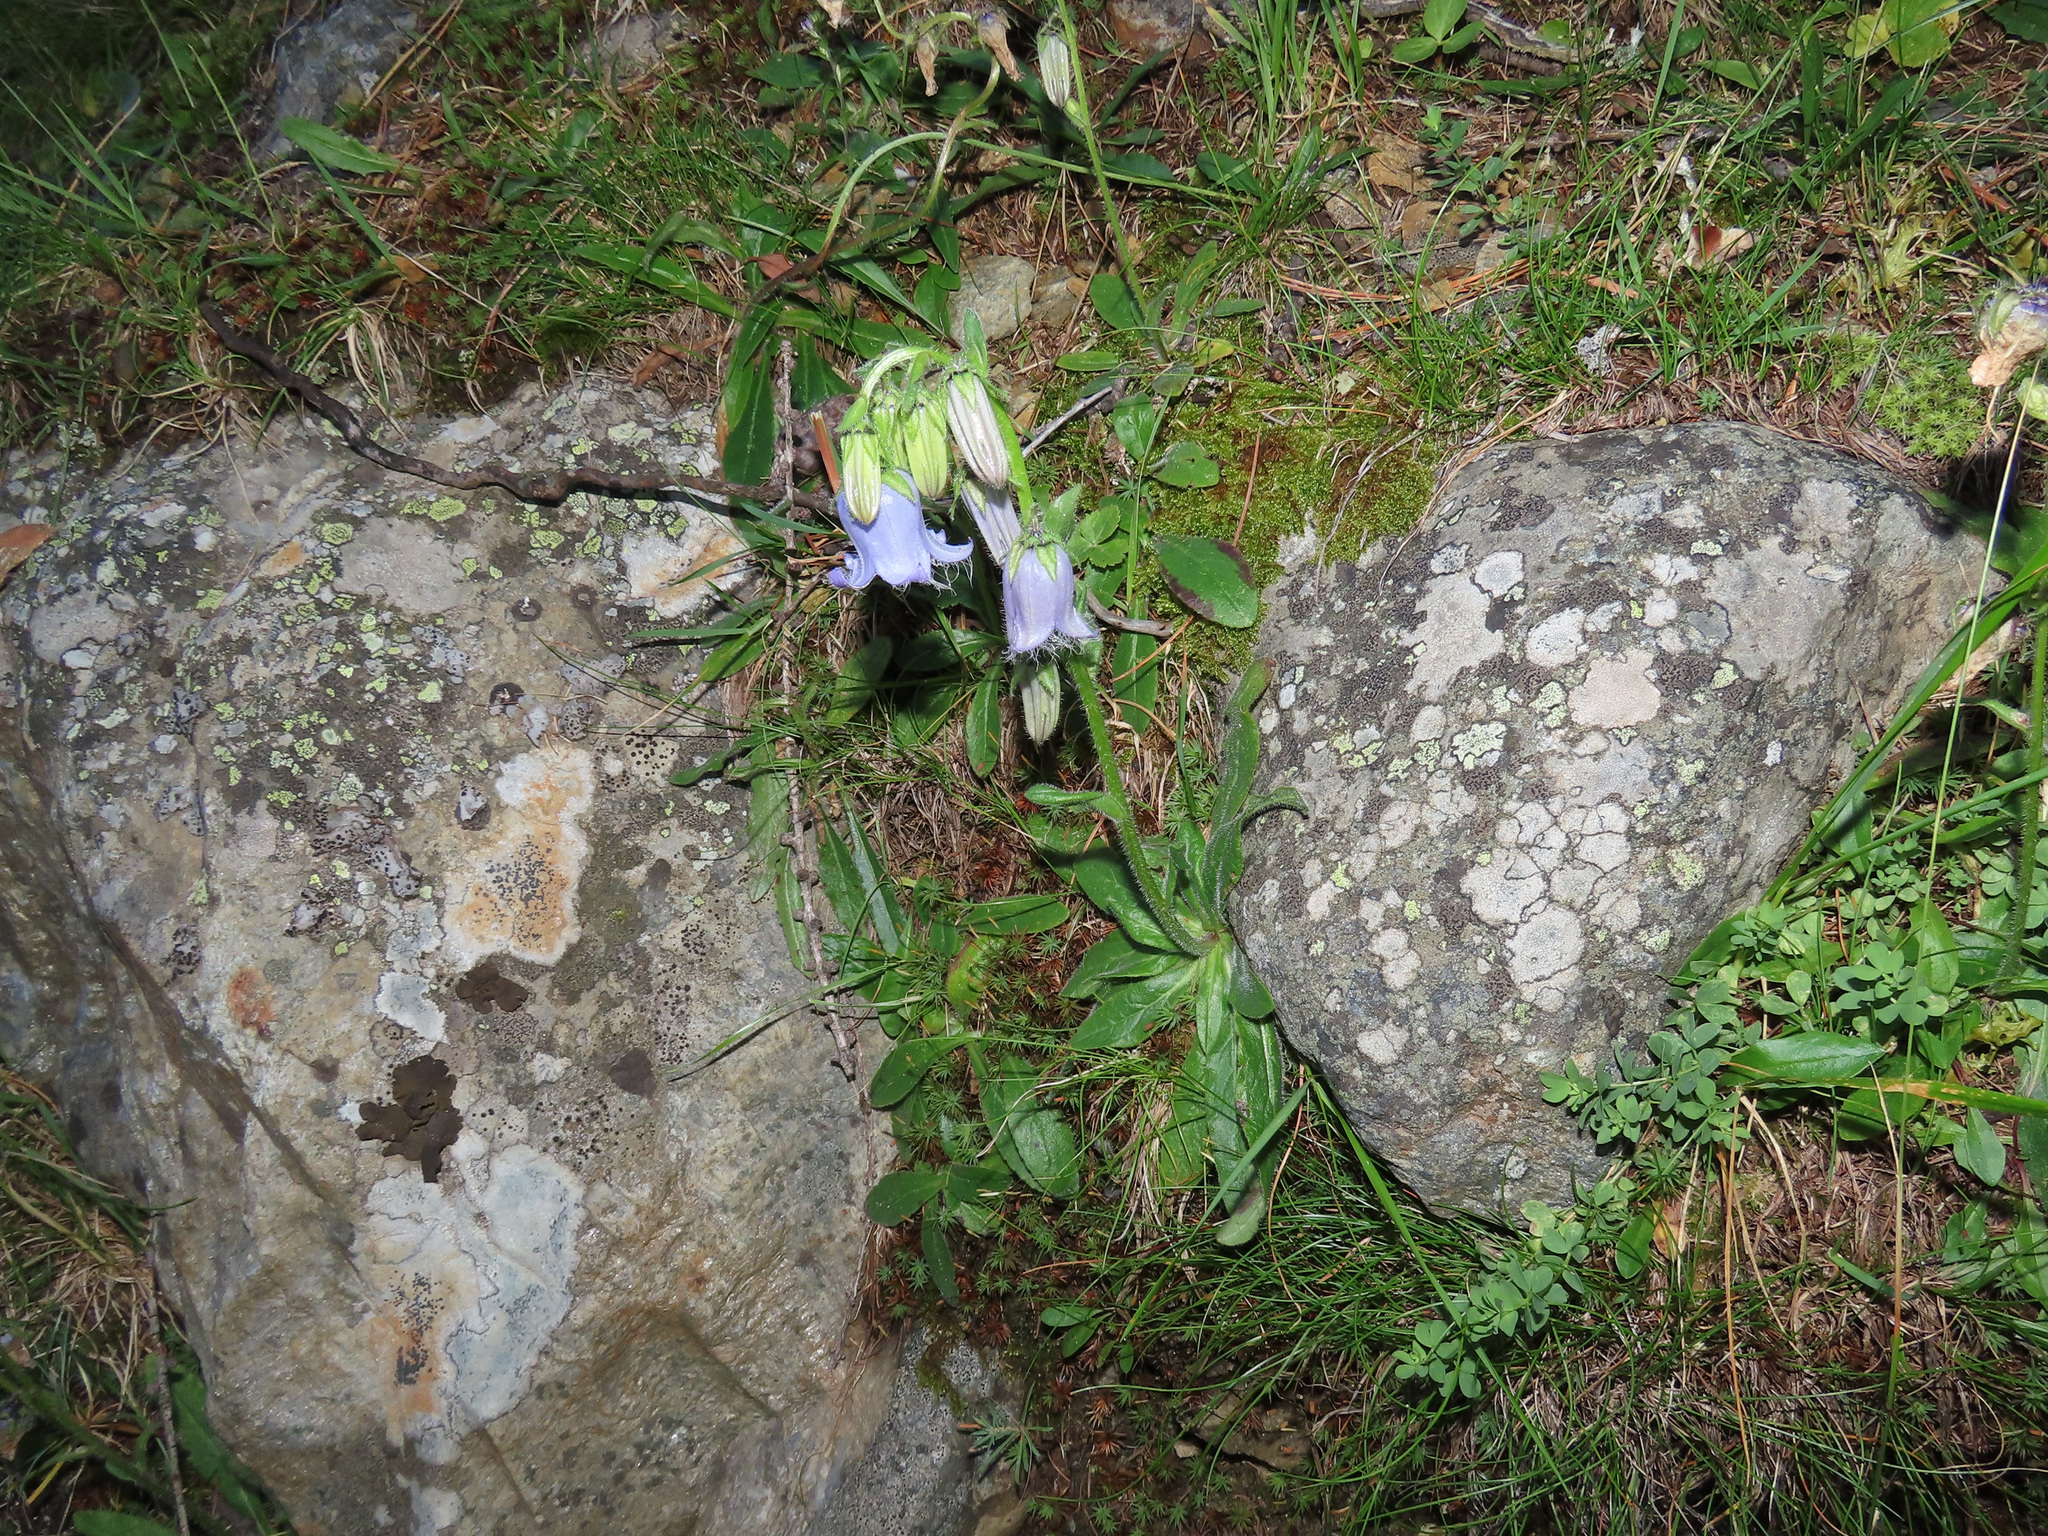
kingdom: Plantae
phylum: Tracheophyta
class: Magnoliopsida
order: Asterales
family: Campanulaceae
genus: Campanula
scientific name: Campanula barbata
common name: Bearded bellflower
